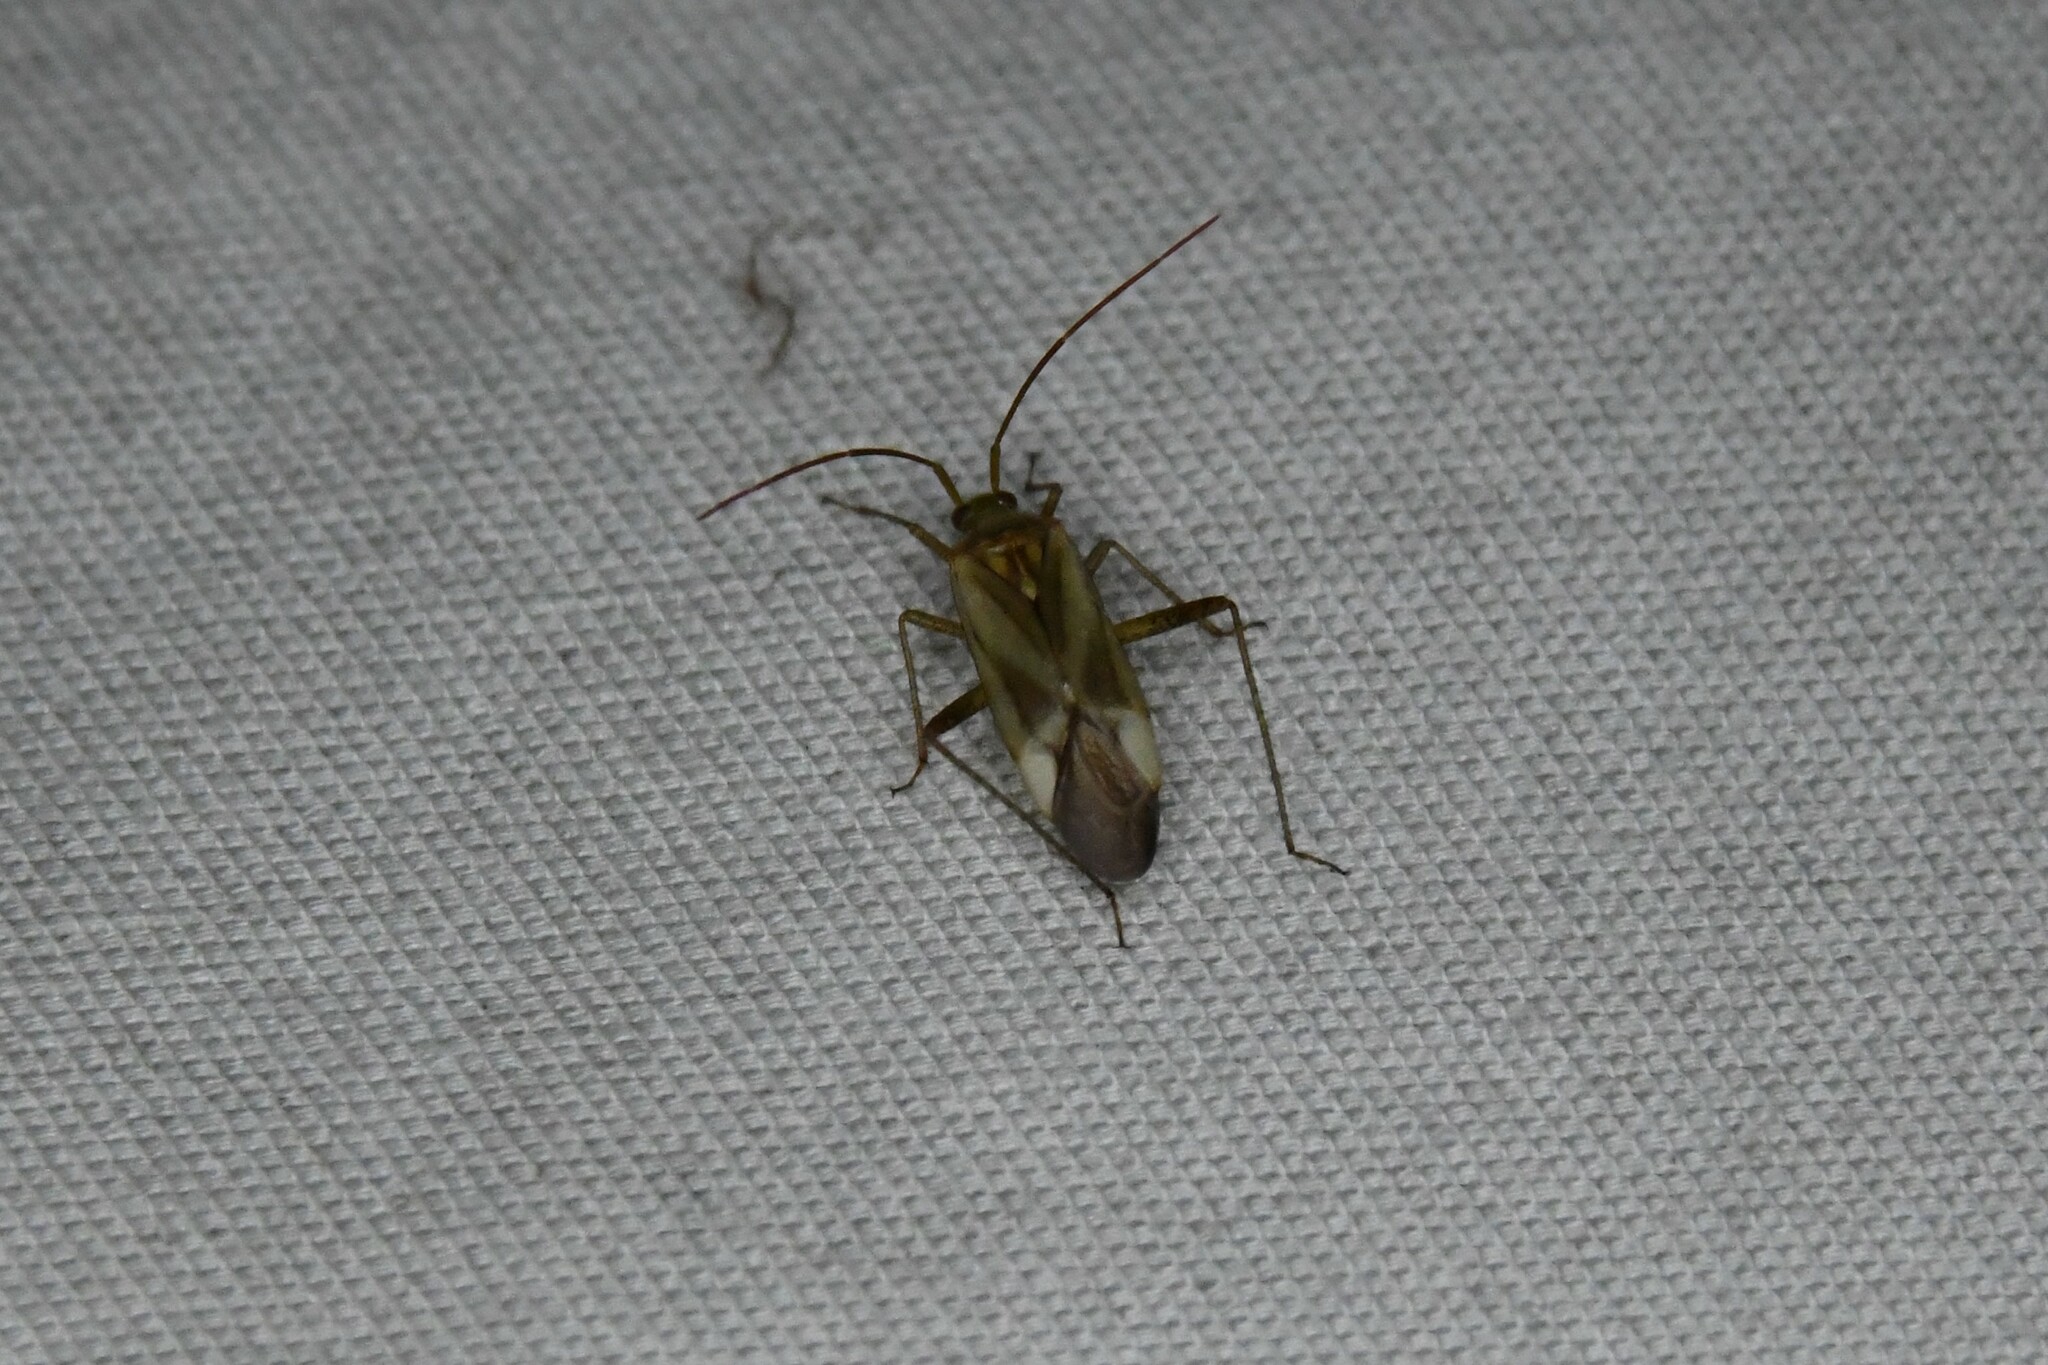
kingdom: Animalia
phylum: Arthropoda
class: Insecta
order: Hemiptera
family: Miridae
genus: Adelphocoris
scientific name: Adelphocoris lineolatus
